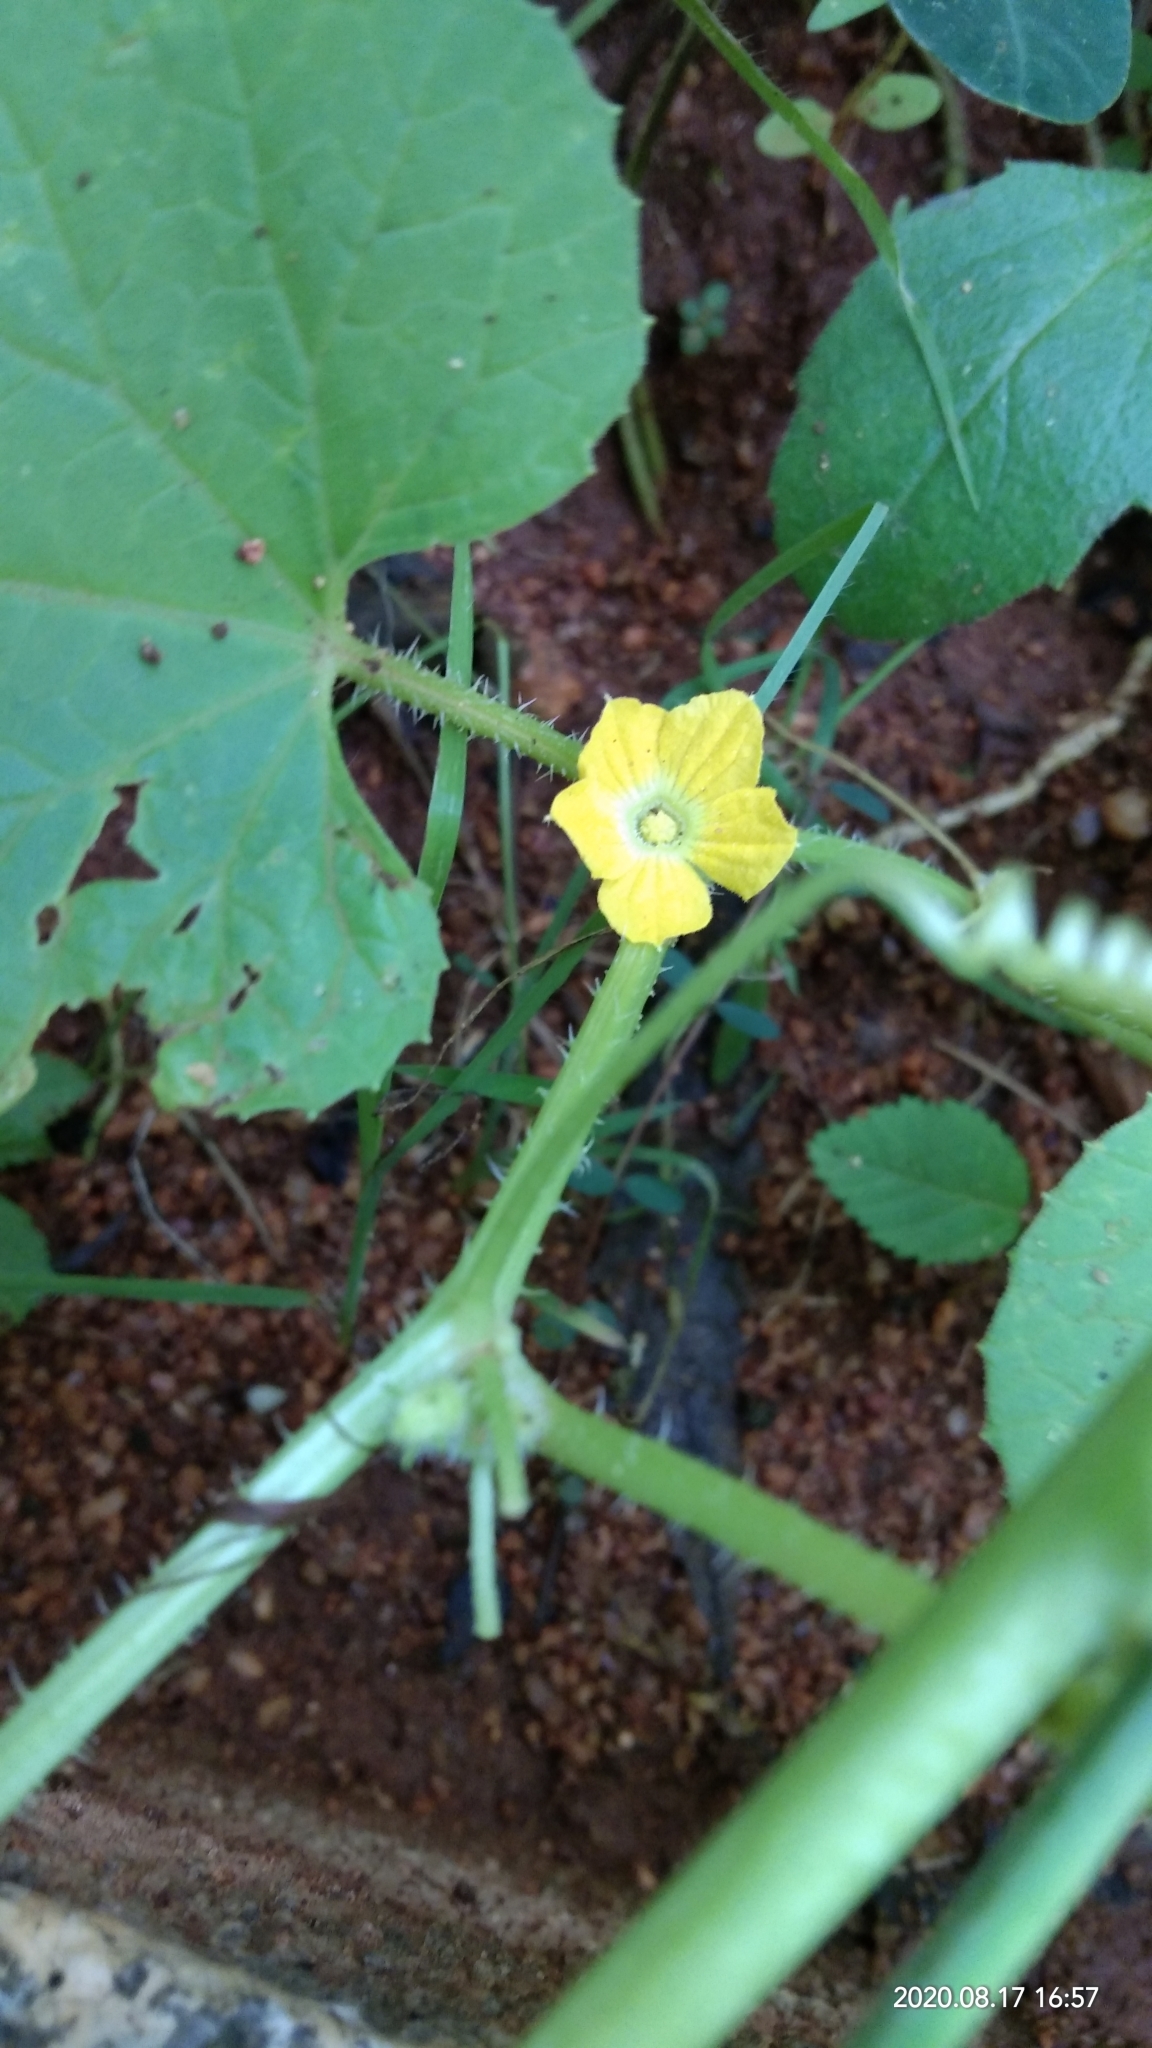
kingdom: Plantae
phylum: Tracheophyta
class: Magnoliopsida
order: Cucurbitales
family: Cucurbitaceae
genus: Cucumis
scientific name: Cucumis sativus
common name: Cucumber
